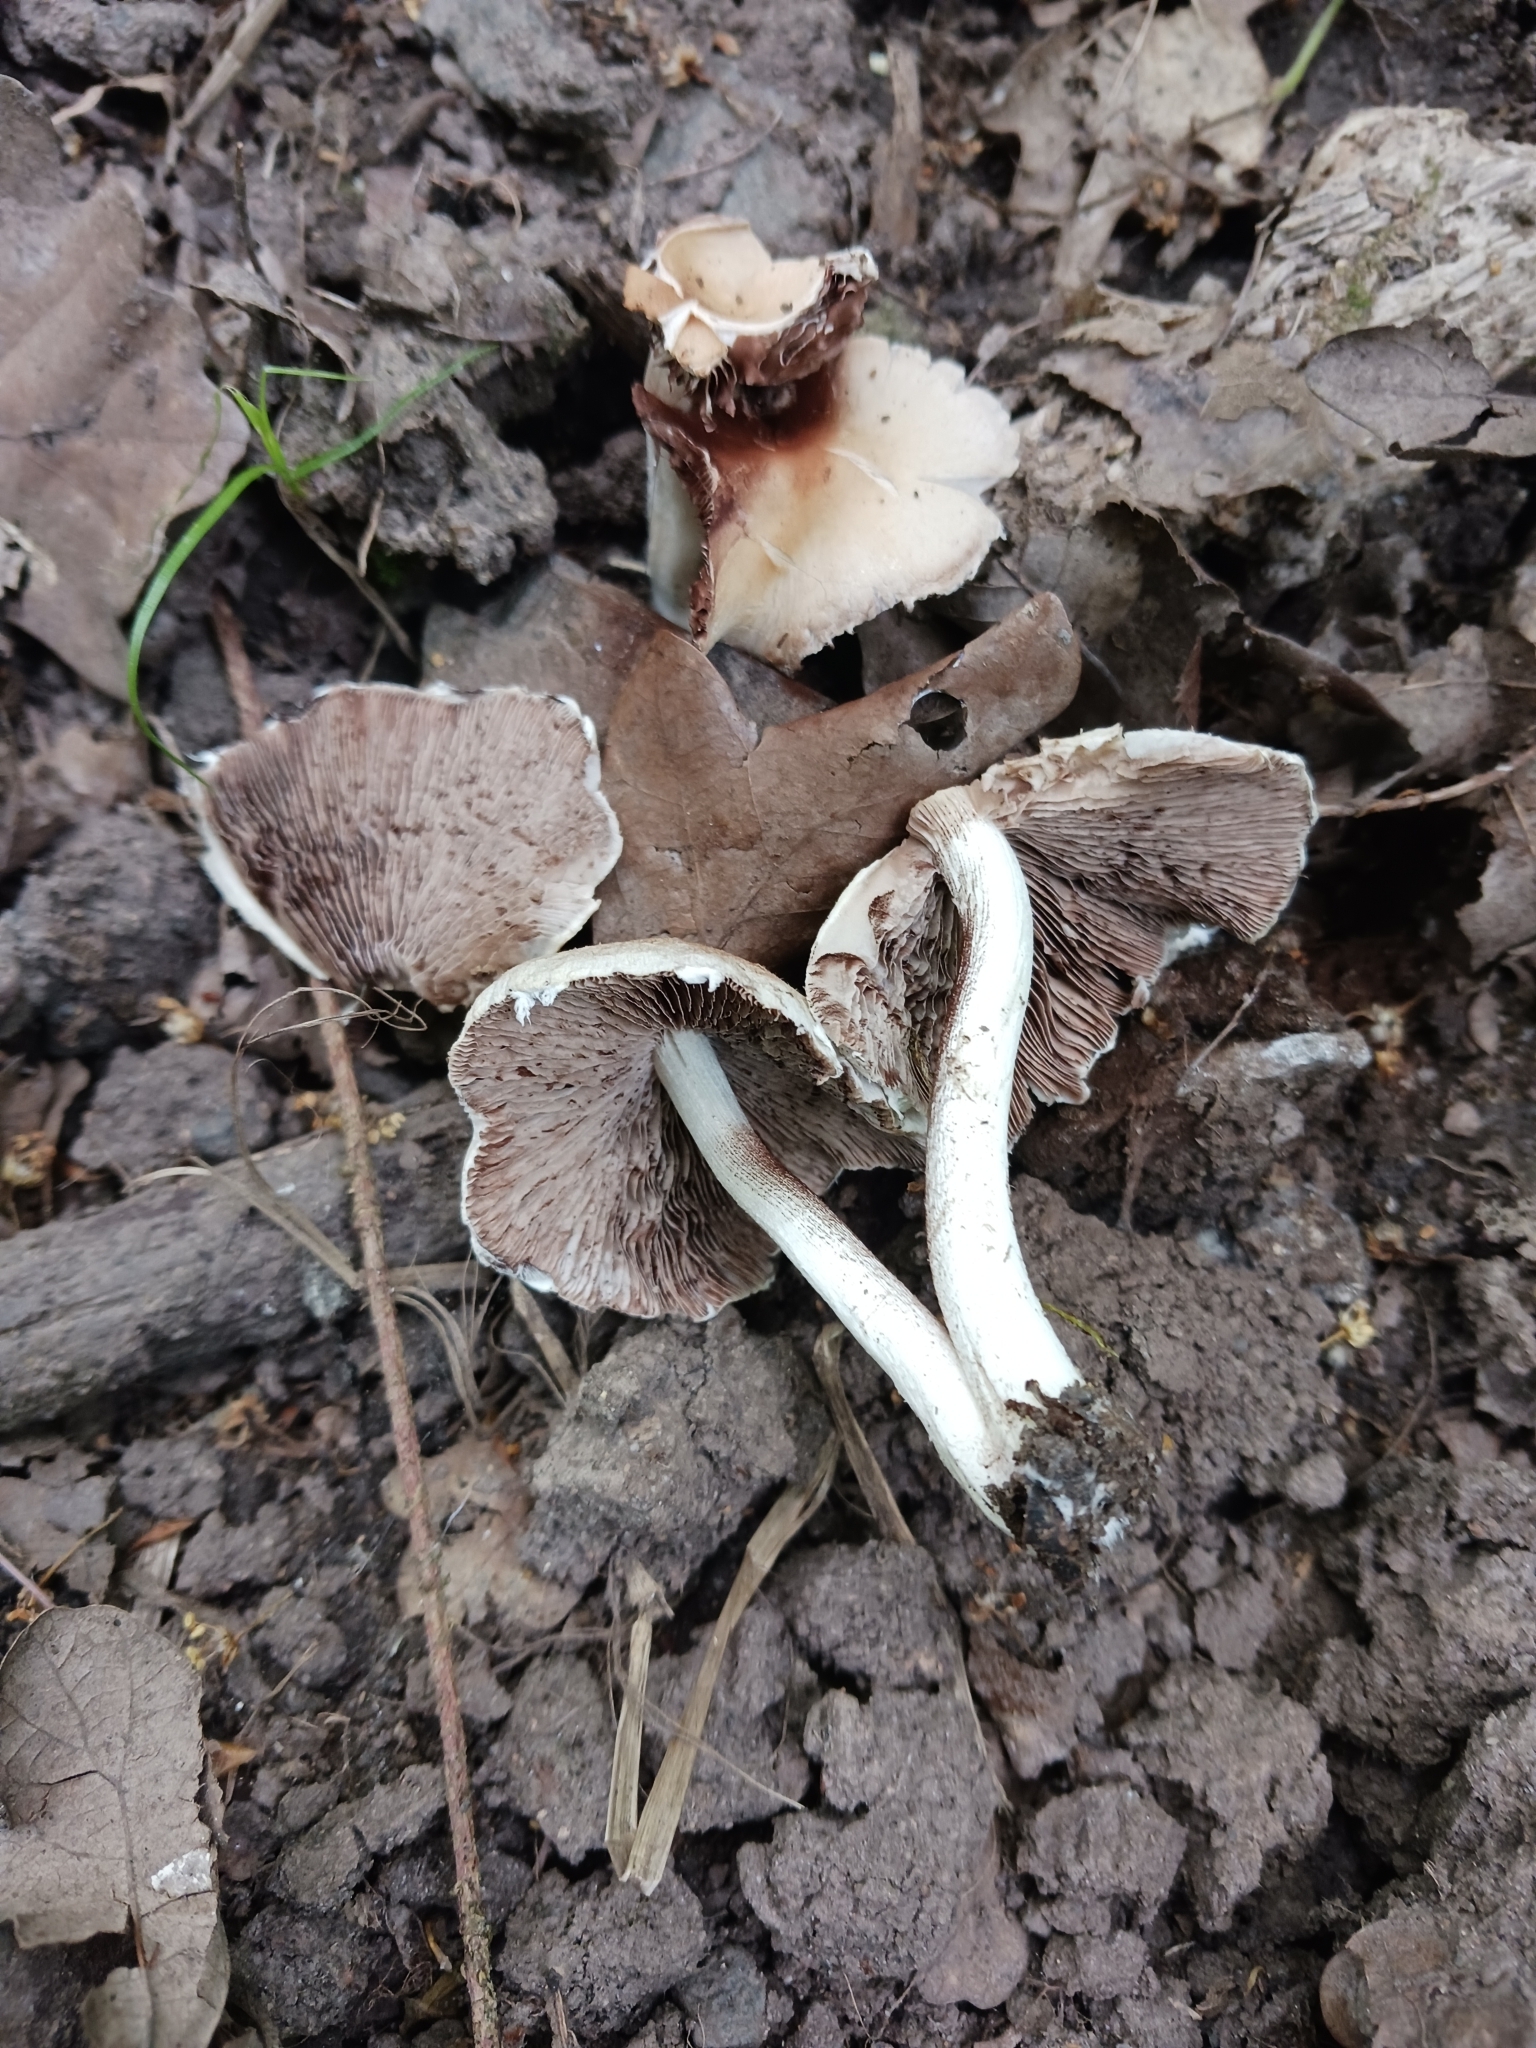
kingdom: Fungi
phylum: Basidiomycota
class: Agaricomycetes
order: Agaricales
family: Psathyrellaceae
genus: Candolleomyces
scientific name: Candolleomyces candolleanus
